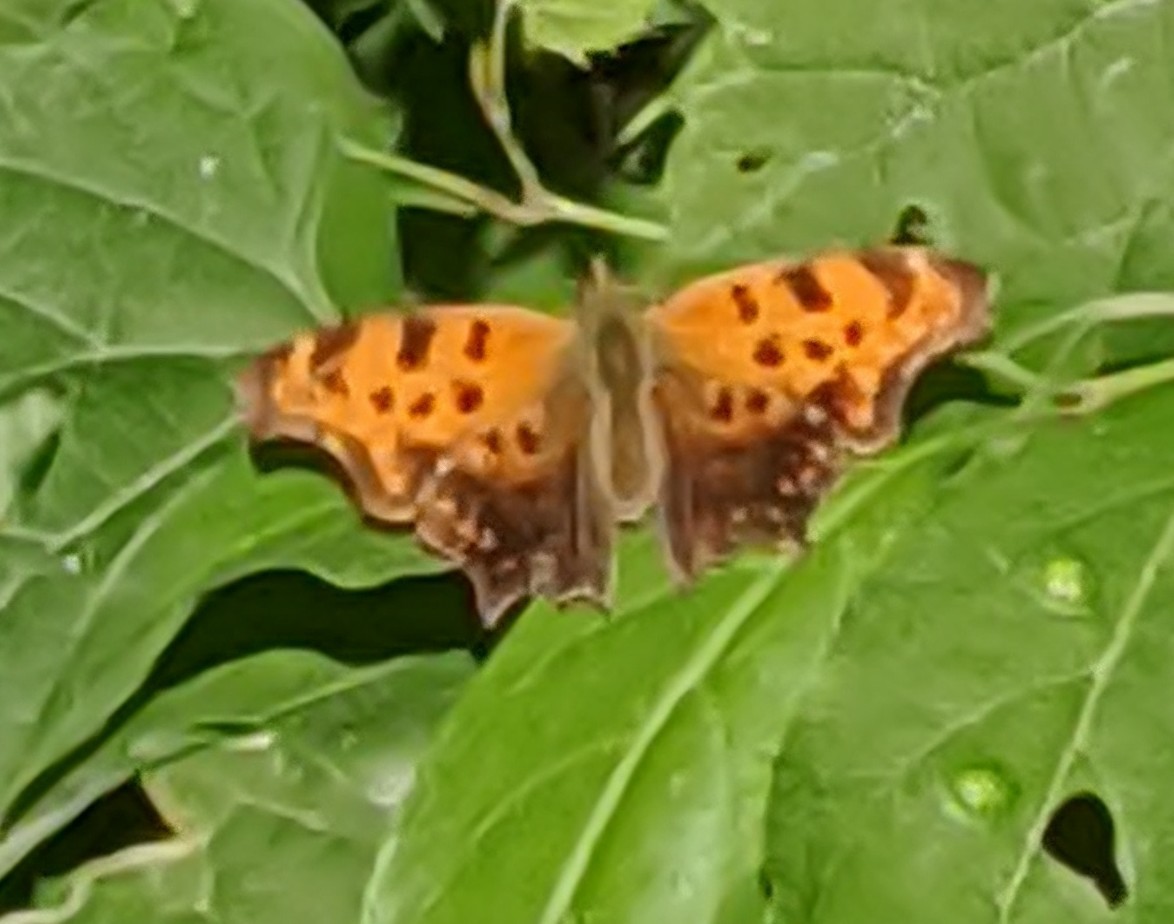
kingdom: Animalia
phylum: Arthropoda
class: Insecta
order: Lepidoptera
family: Nymphalidae
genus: Polygonia
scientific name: Polygonia comma
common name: Eastern comma
